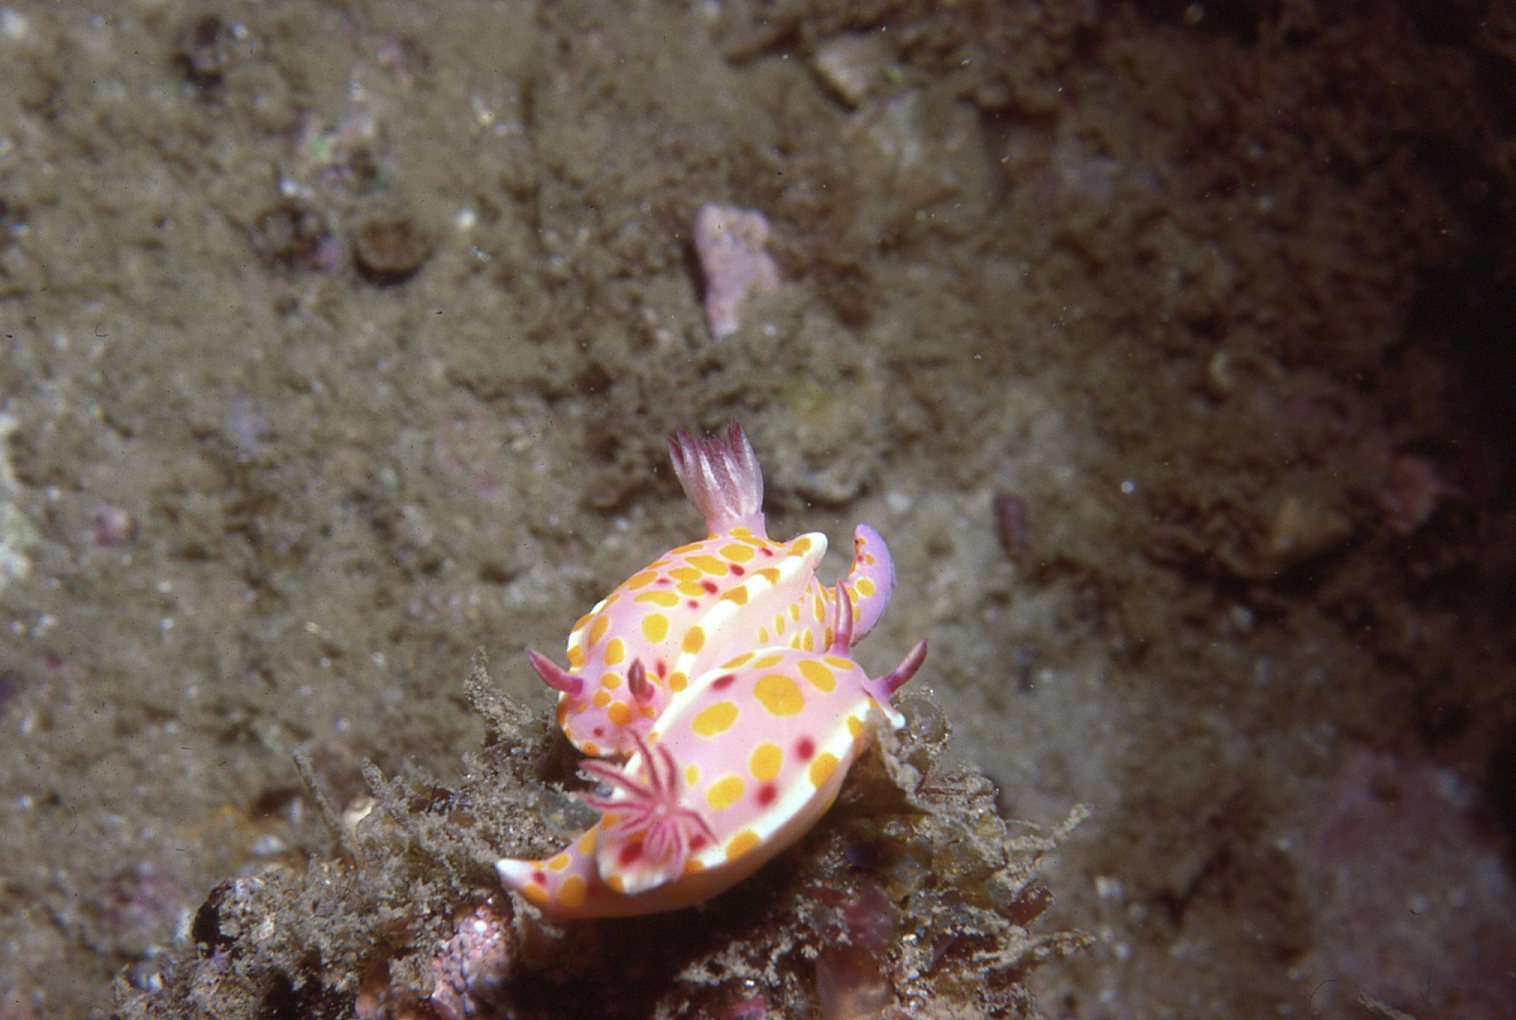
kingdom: Animalia
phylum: Mollusca
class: Gastropoda
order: Nudibranchia
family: Chromodorididae
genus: Ceratosoma
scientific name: Ceratosoma amoenum
